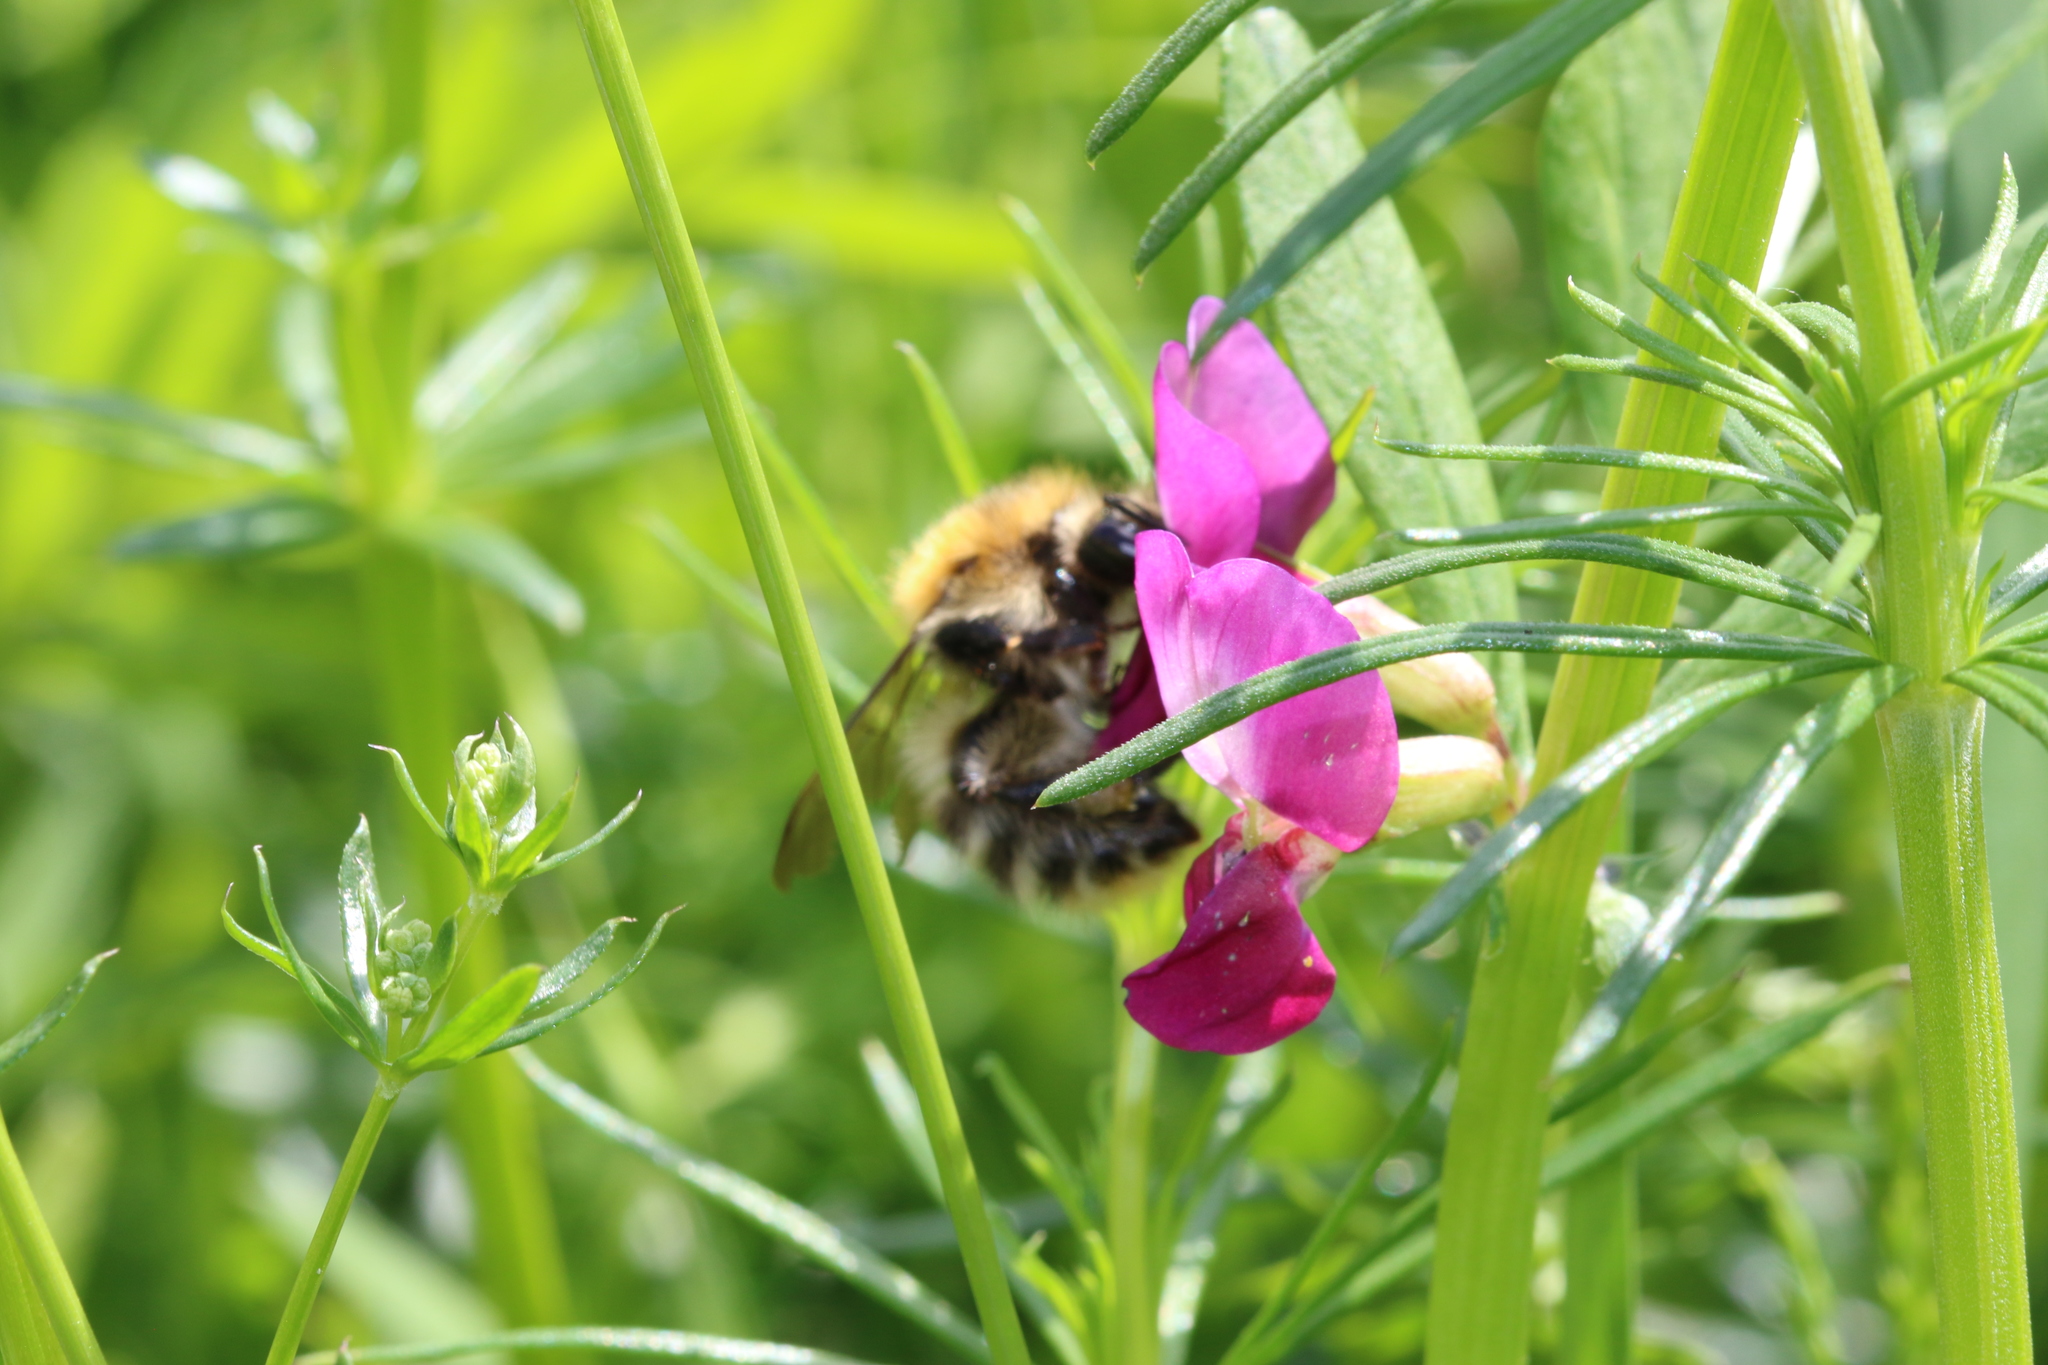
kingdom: Animalia
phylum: Arthropoda
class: Insecta
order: Hymenoptera
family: Apidae
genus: Bombus
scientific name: Bombus pascuorum
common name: Common carder bee
